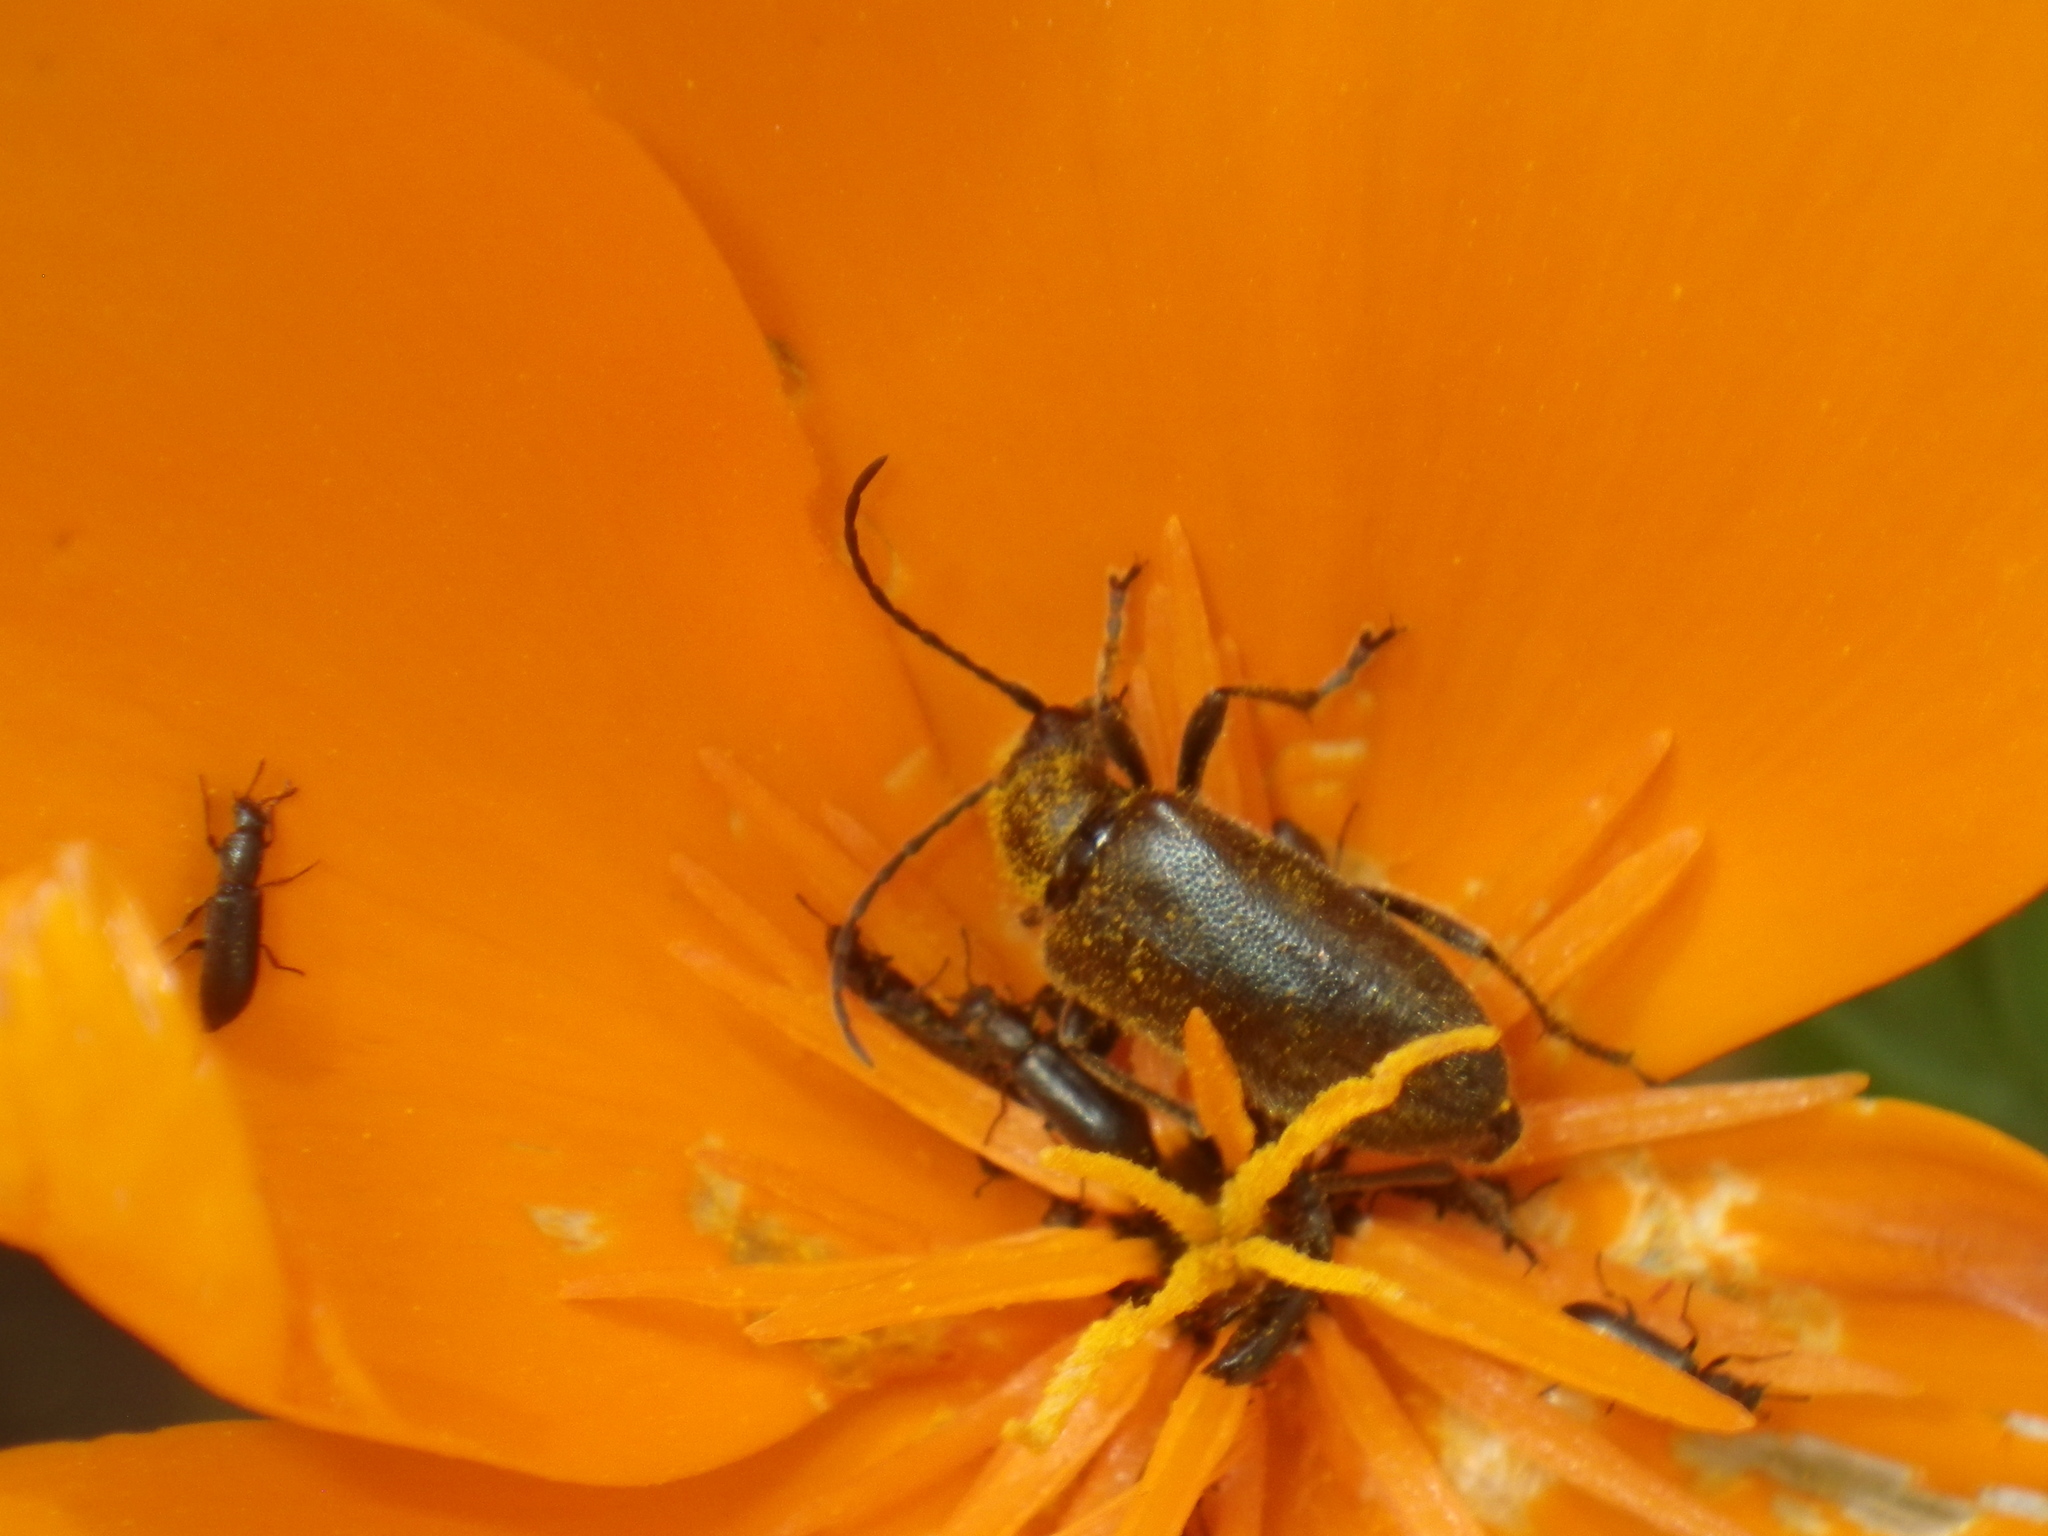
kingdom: Animalia
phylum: Arthropoda
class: Insecta
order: Coleoptera
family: Cerambycidae
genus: Brachysomida
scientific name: Brachysomida californica
